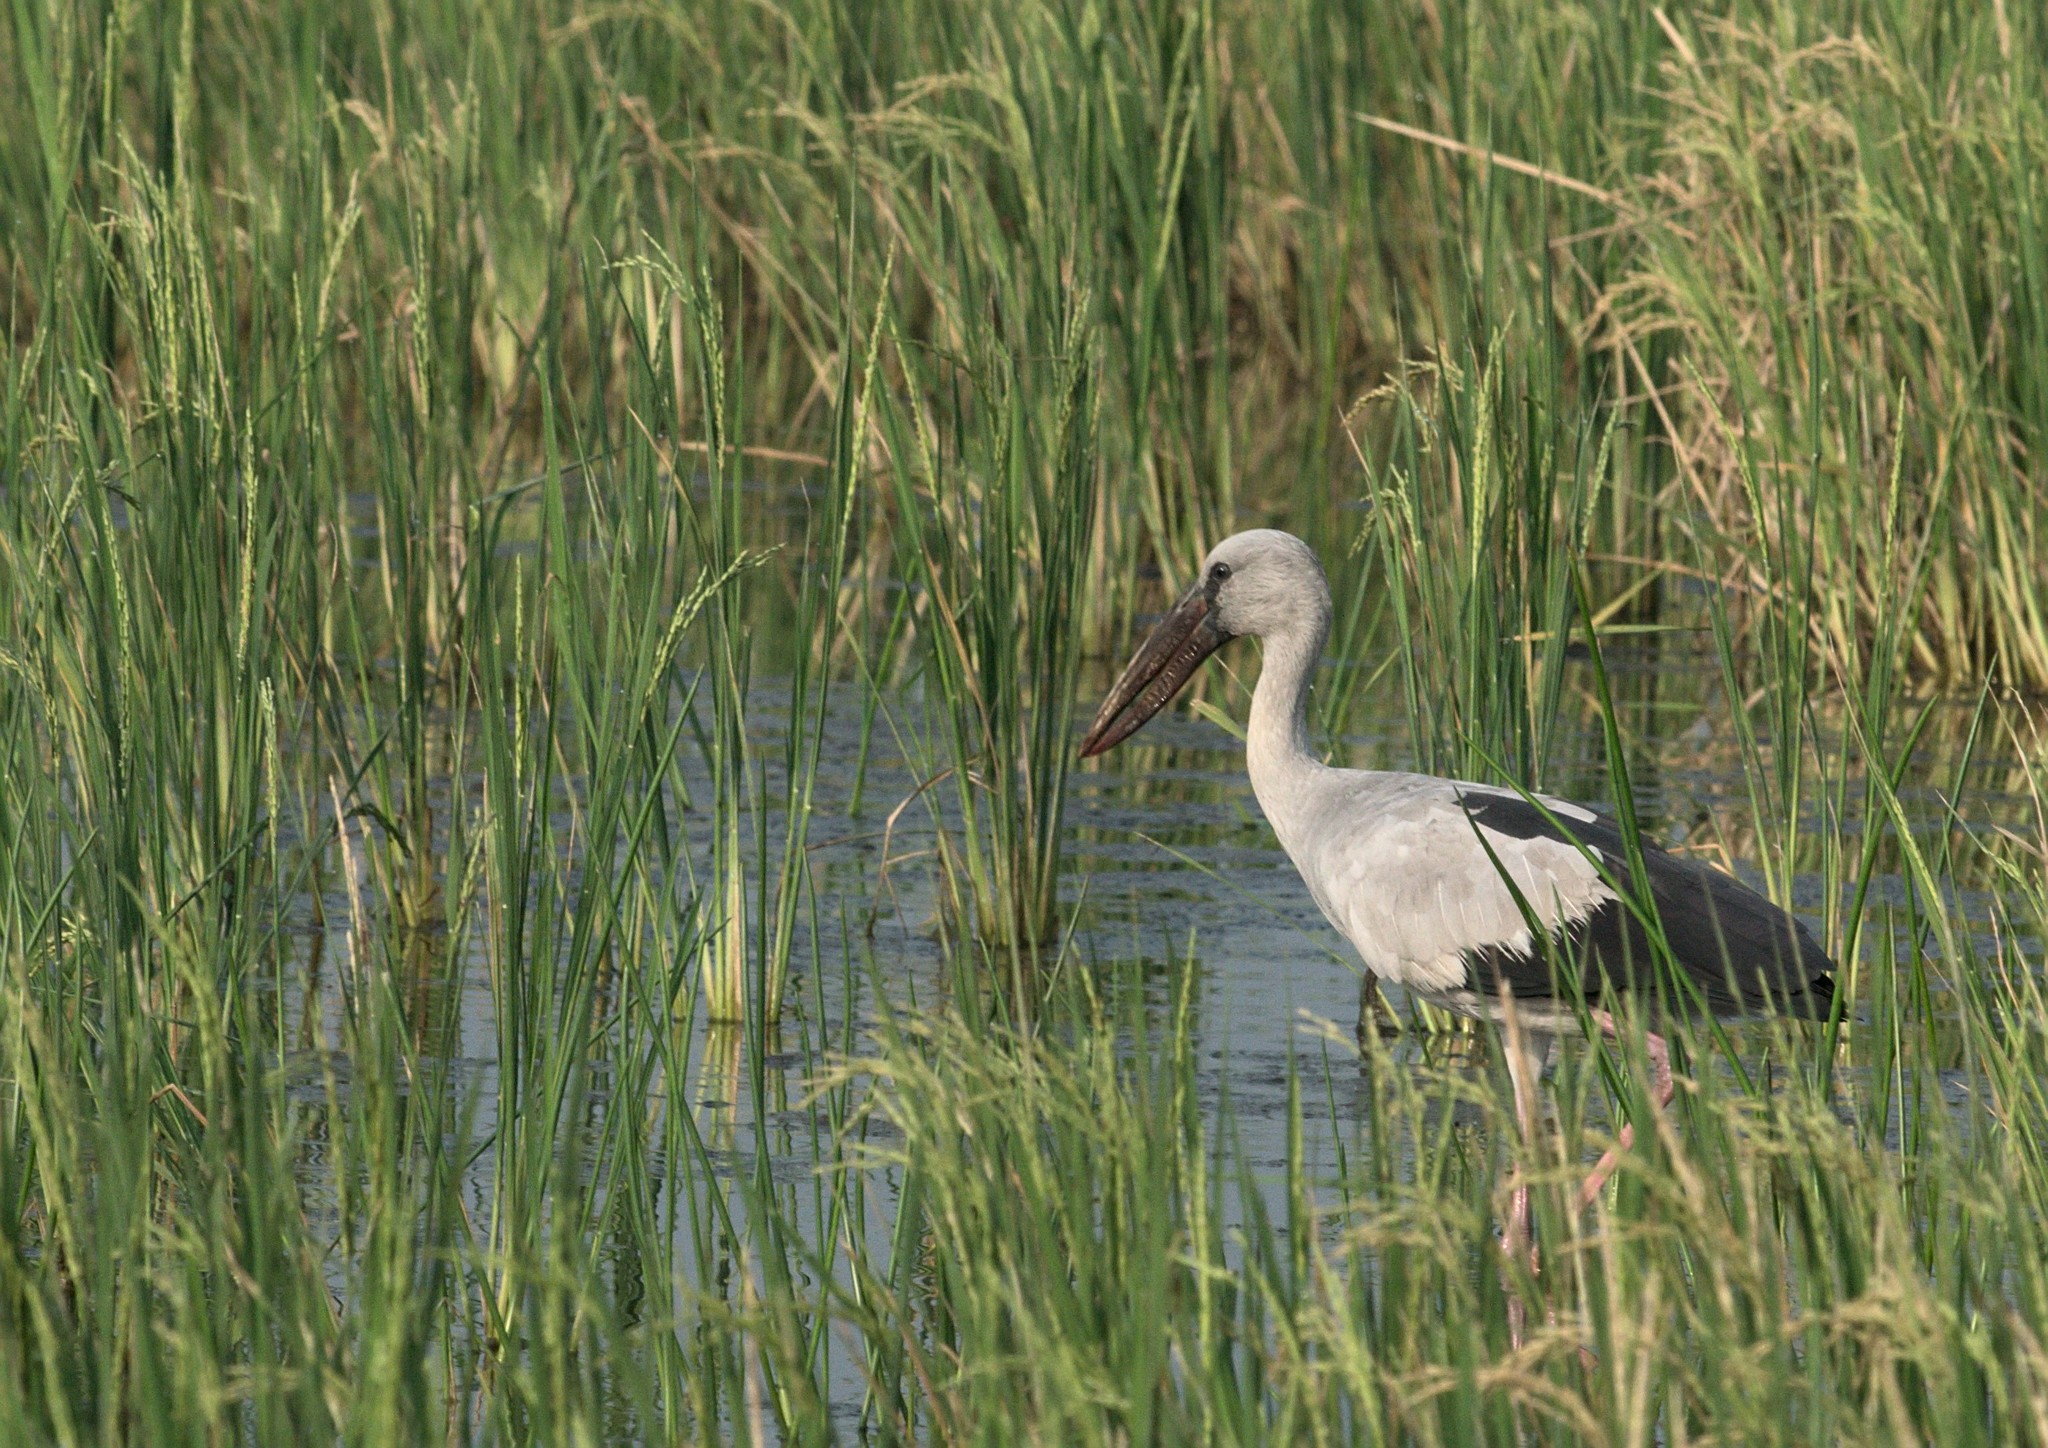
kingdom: Animalia
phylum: Chordata
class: Aves
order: Ciconiiformes
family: Ciconiidae
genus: Anastomus
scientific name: Anastomus oscitans
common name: Asian openbill
